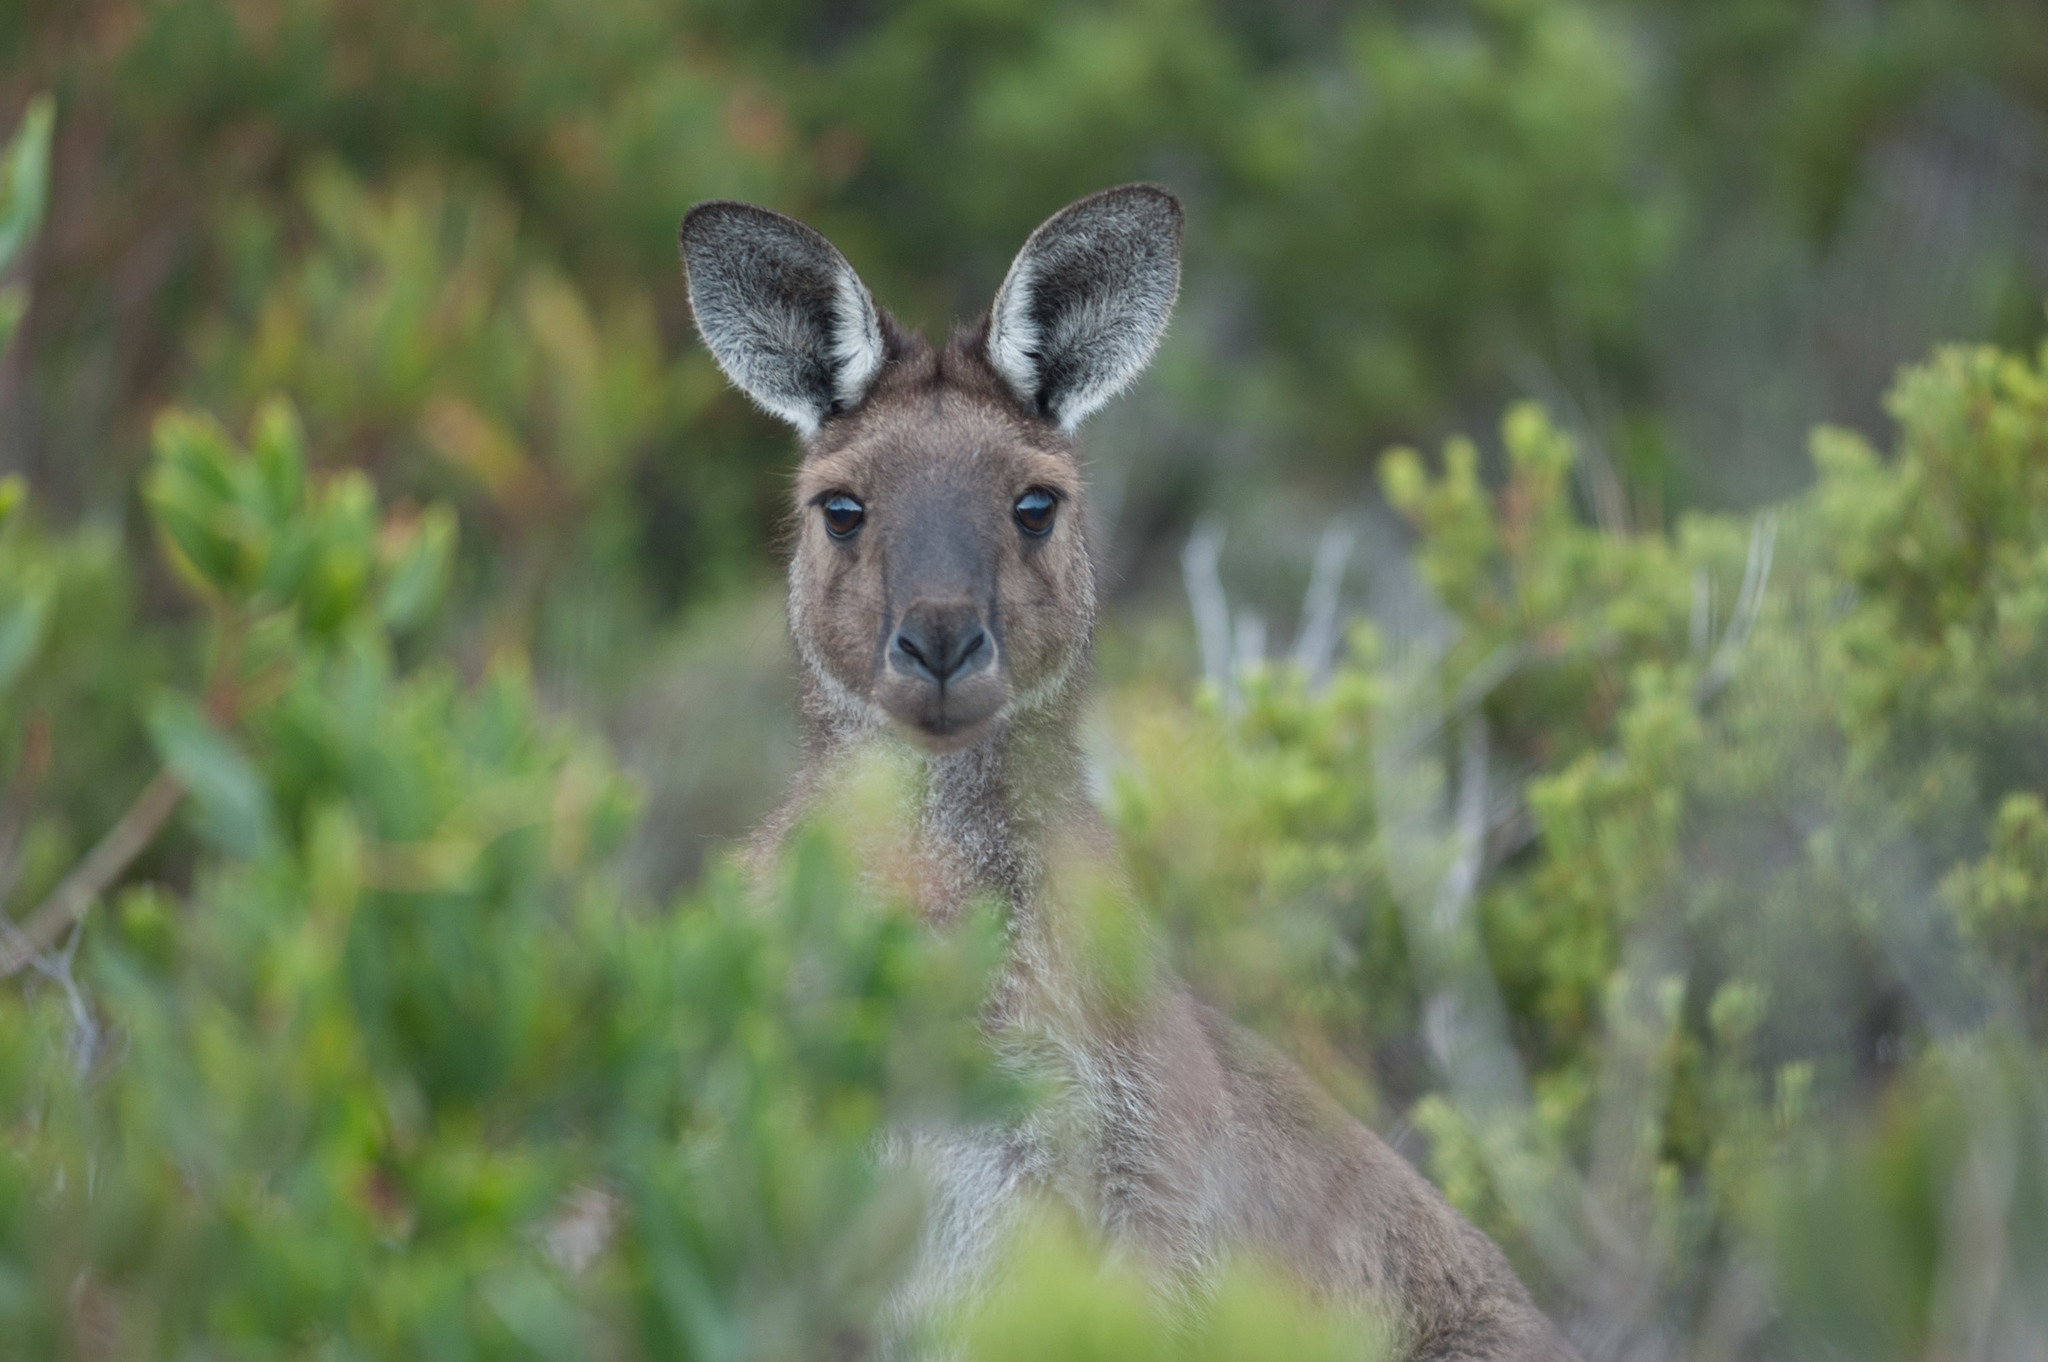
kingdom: Animalia
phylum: Chordata
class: Mammalia
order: Diprotodontia
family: Macropodidae
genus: Macropus
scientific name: Macropus fuliginosus
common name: Western grey kangaroo
